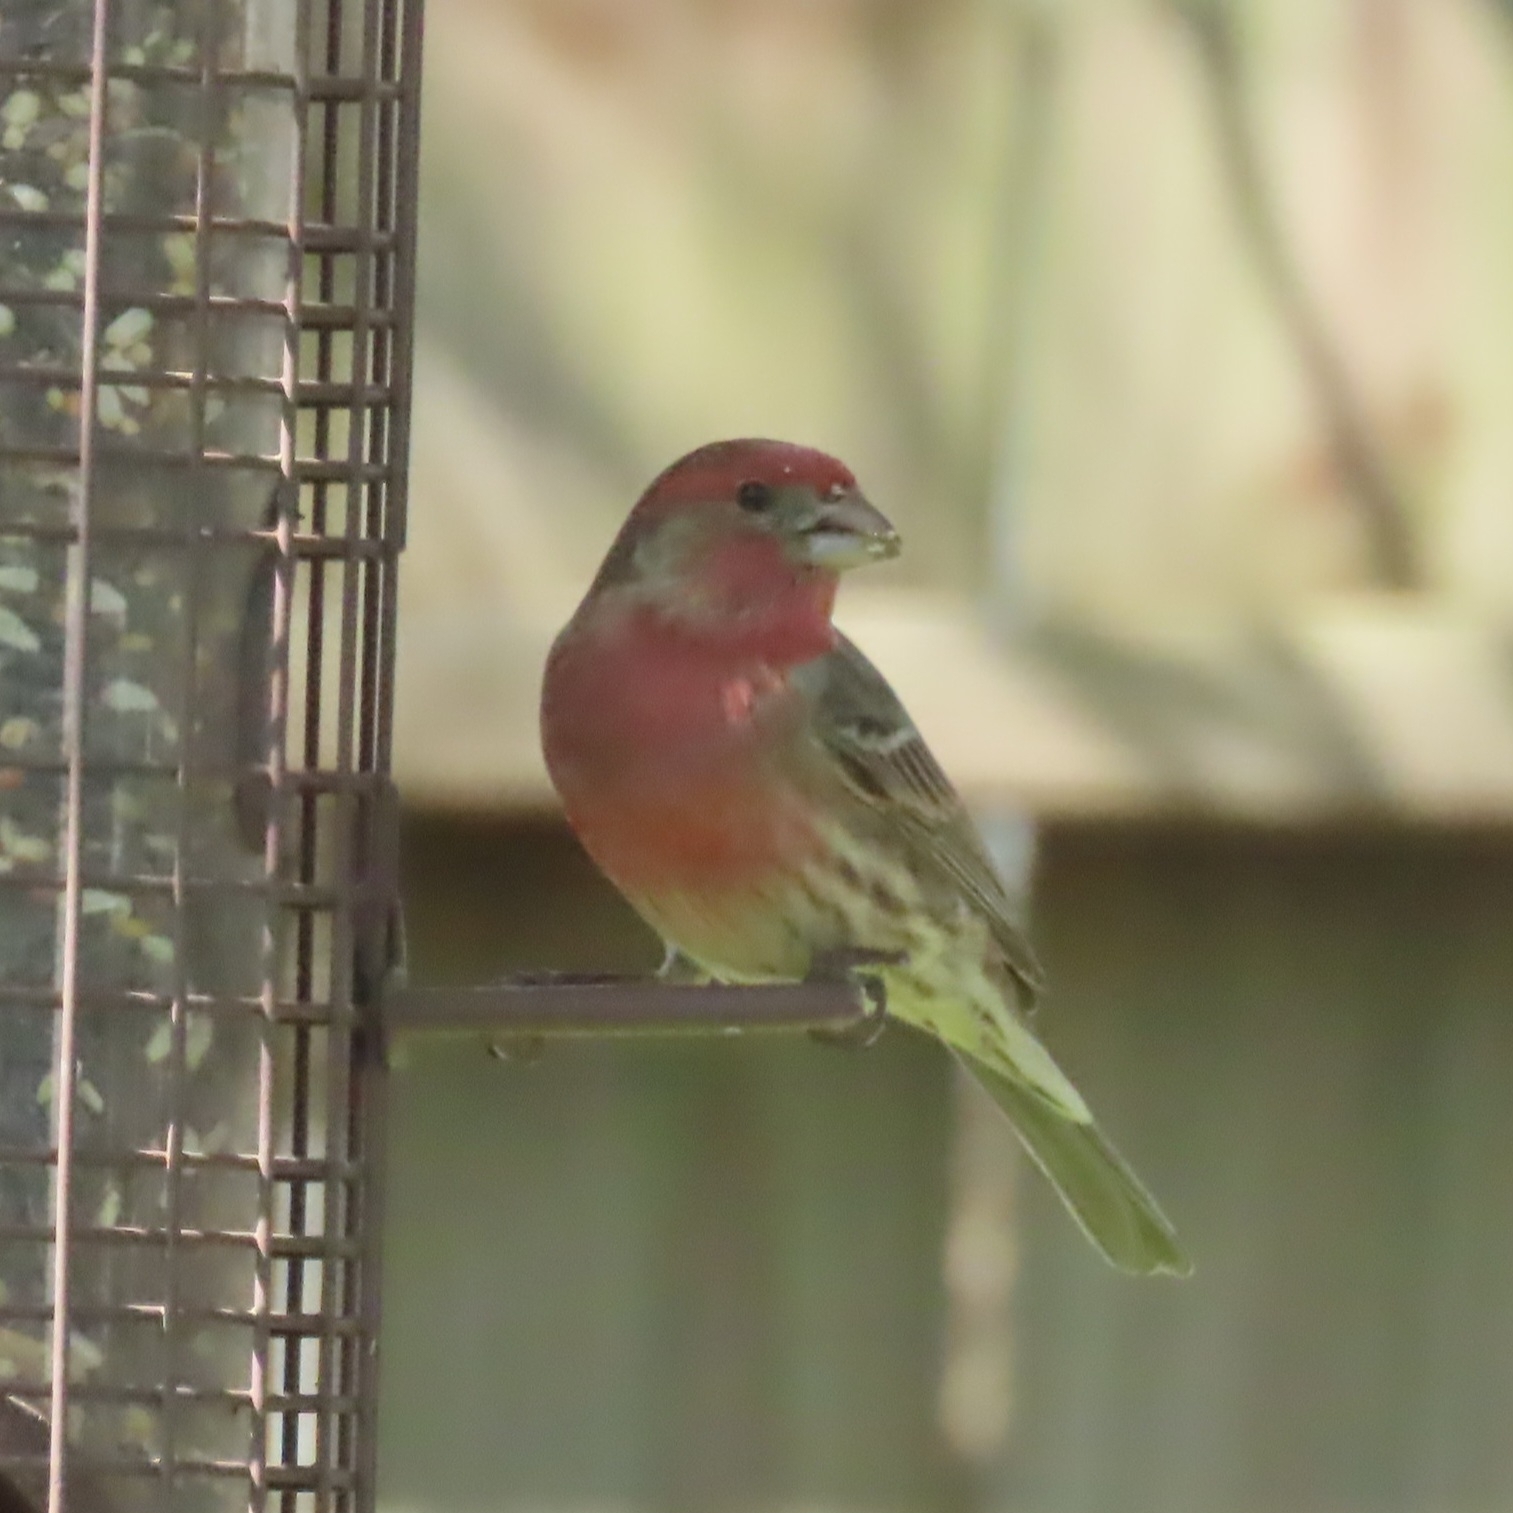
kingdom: Animalia
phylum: Chordata
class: Aves
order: Passeriformes
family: Fringillidae
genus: Haemorhous
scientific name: Haemorhous mexicanus
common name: House finch
